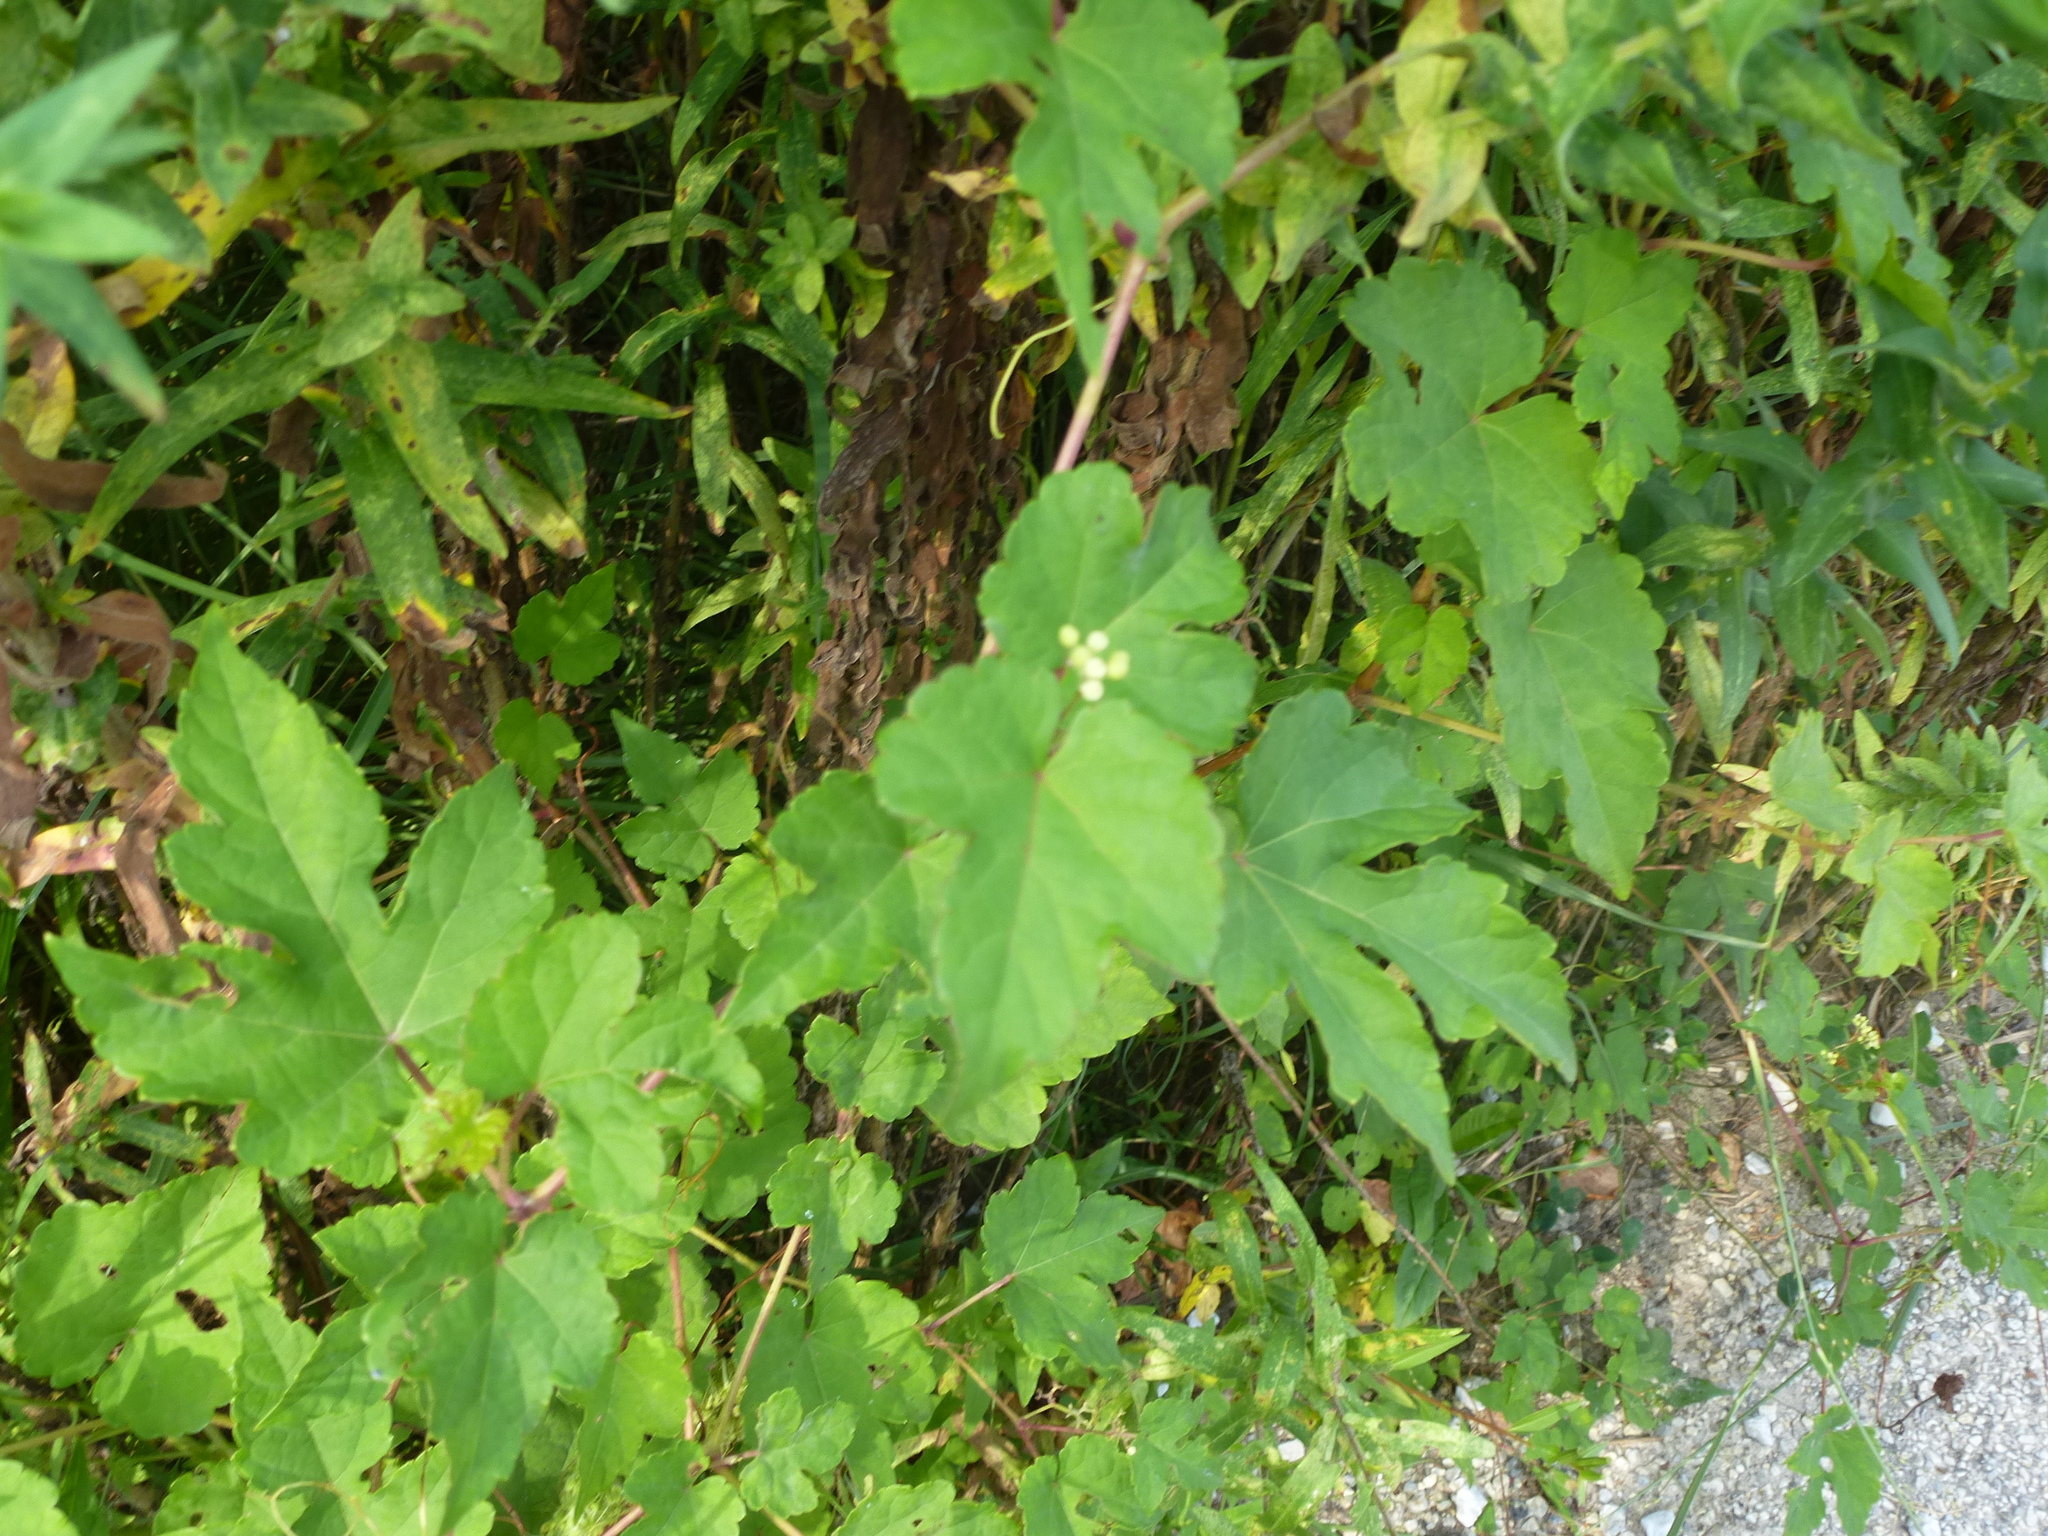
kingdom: Plantae
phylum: Tracheophyta
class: Magnoliopsida
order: Vitales
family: Vitaceae
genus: Ampelopsis
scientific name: Ampelopsis glandulosa
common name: Amur peppervine
